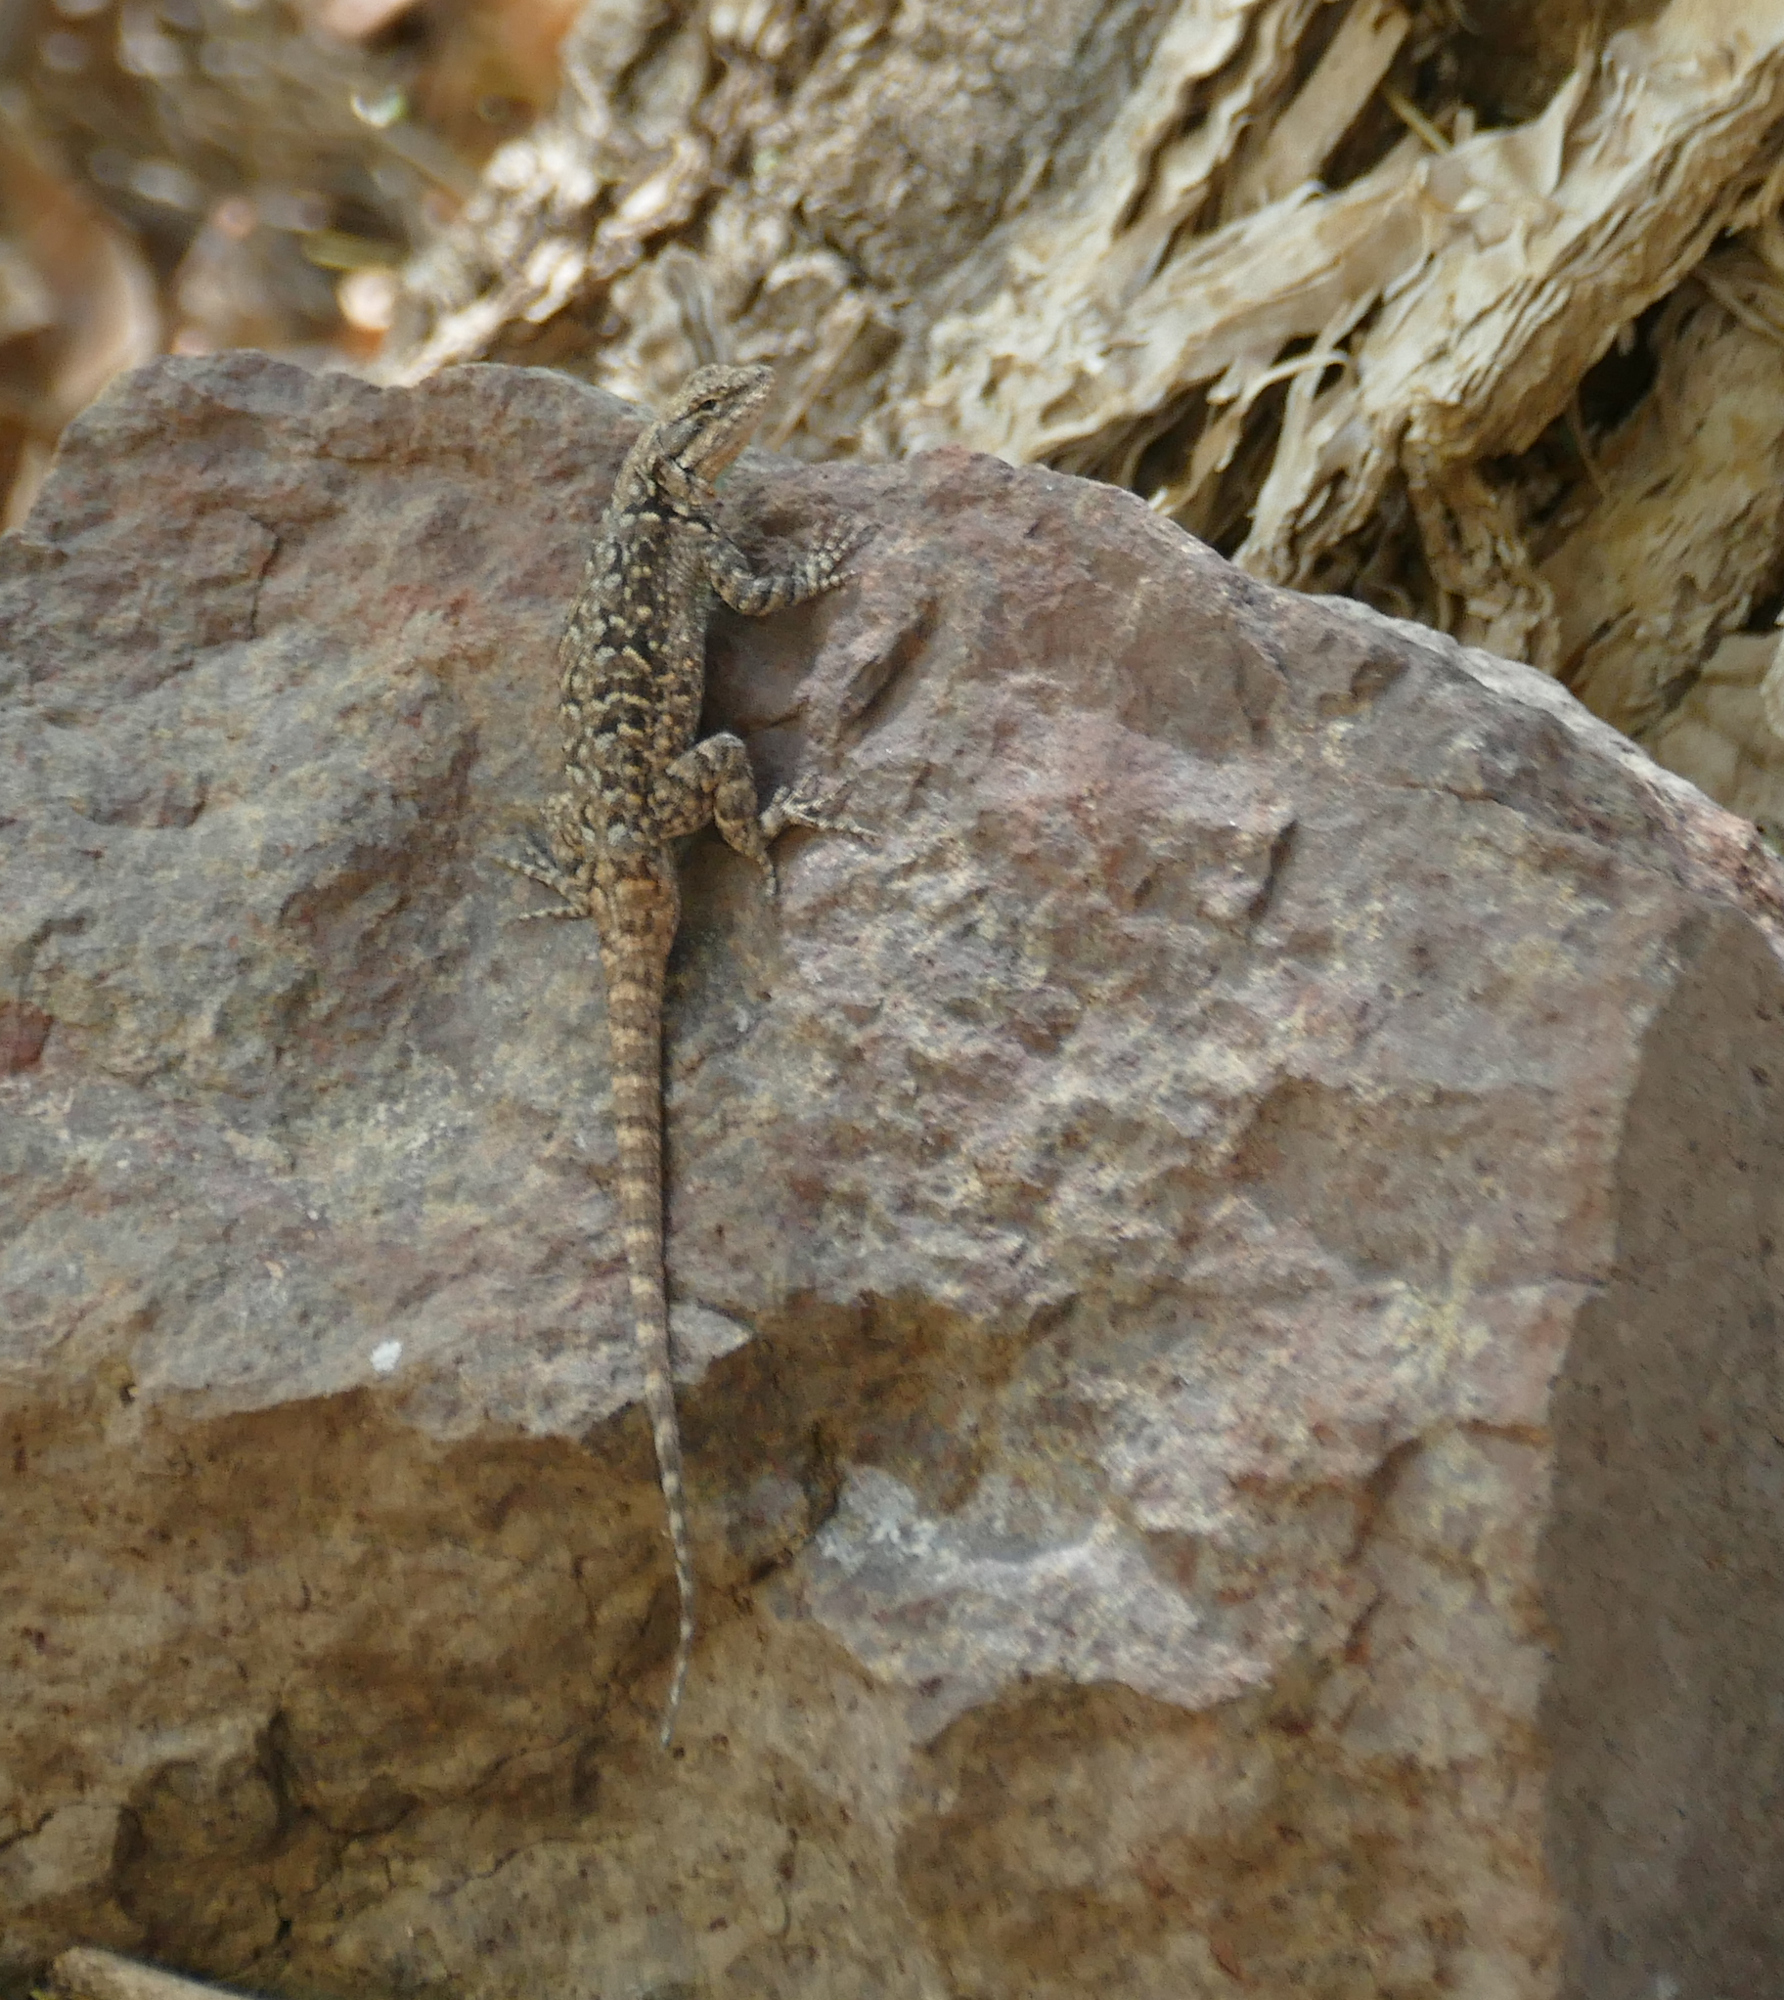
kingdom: Animalia
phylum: Chordata
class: Squamata
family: Phrynosomatidae
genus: Urosaurus
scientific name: Urosaurus ornatus
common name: Ornate tree lizard
